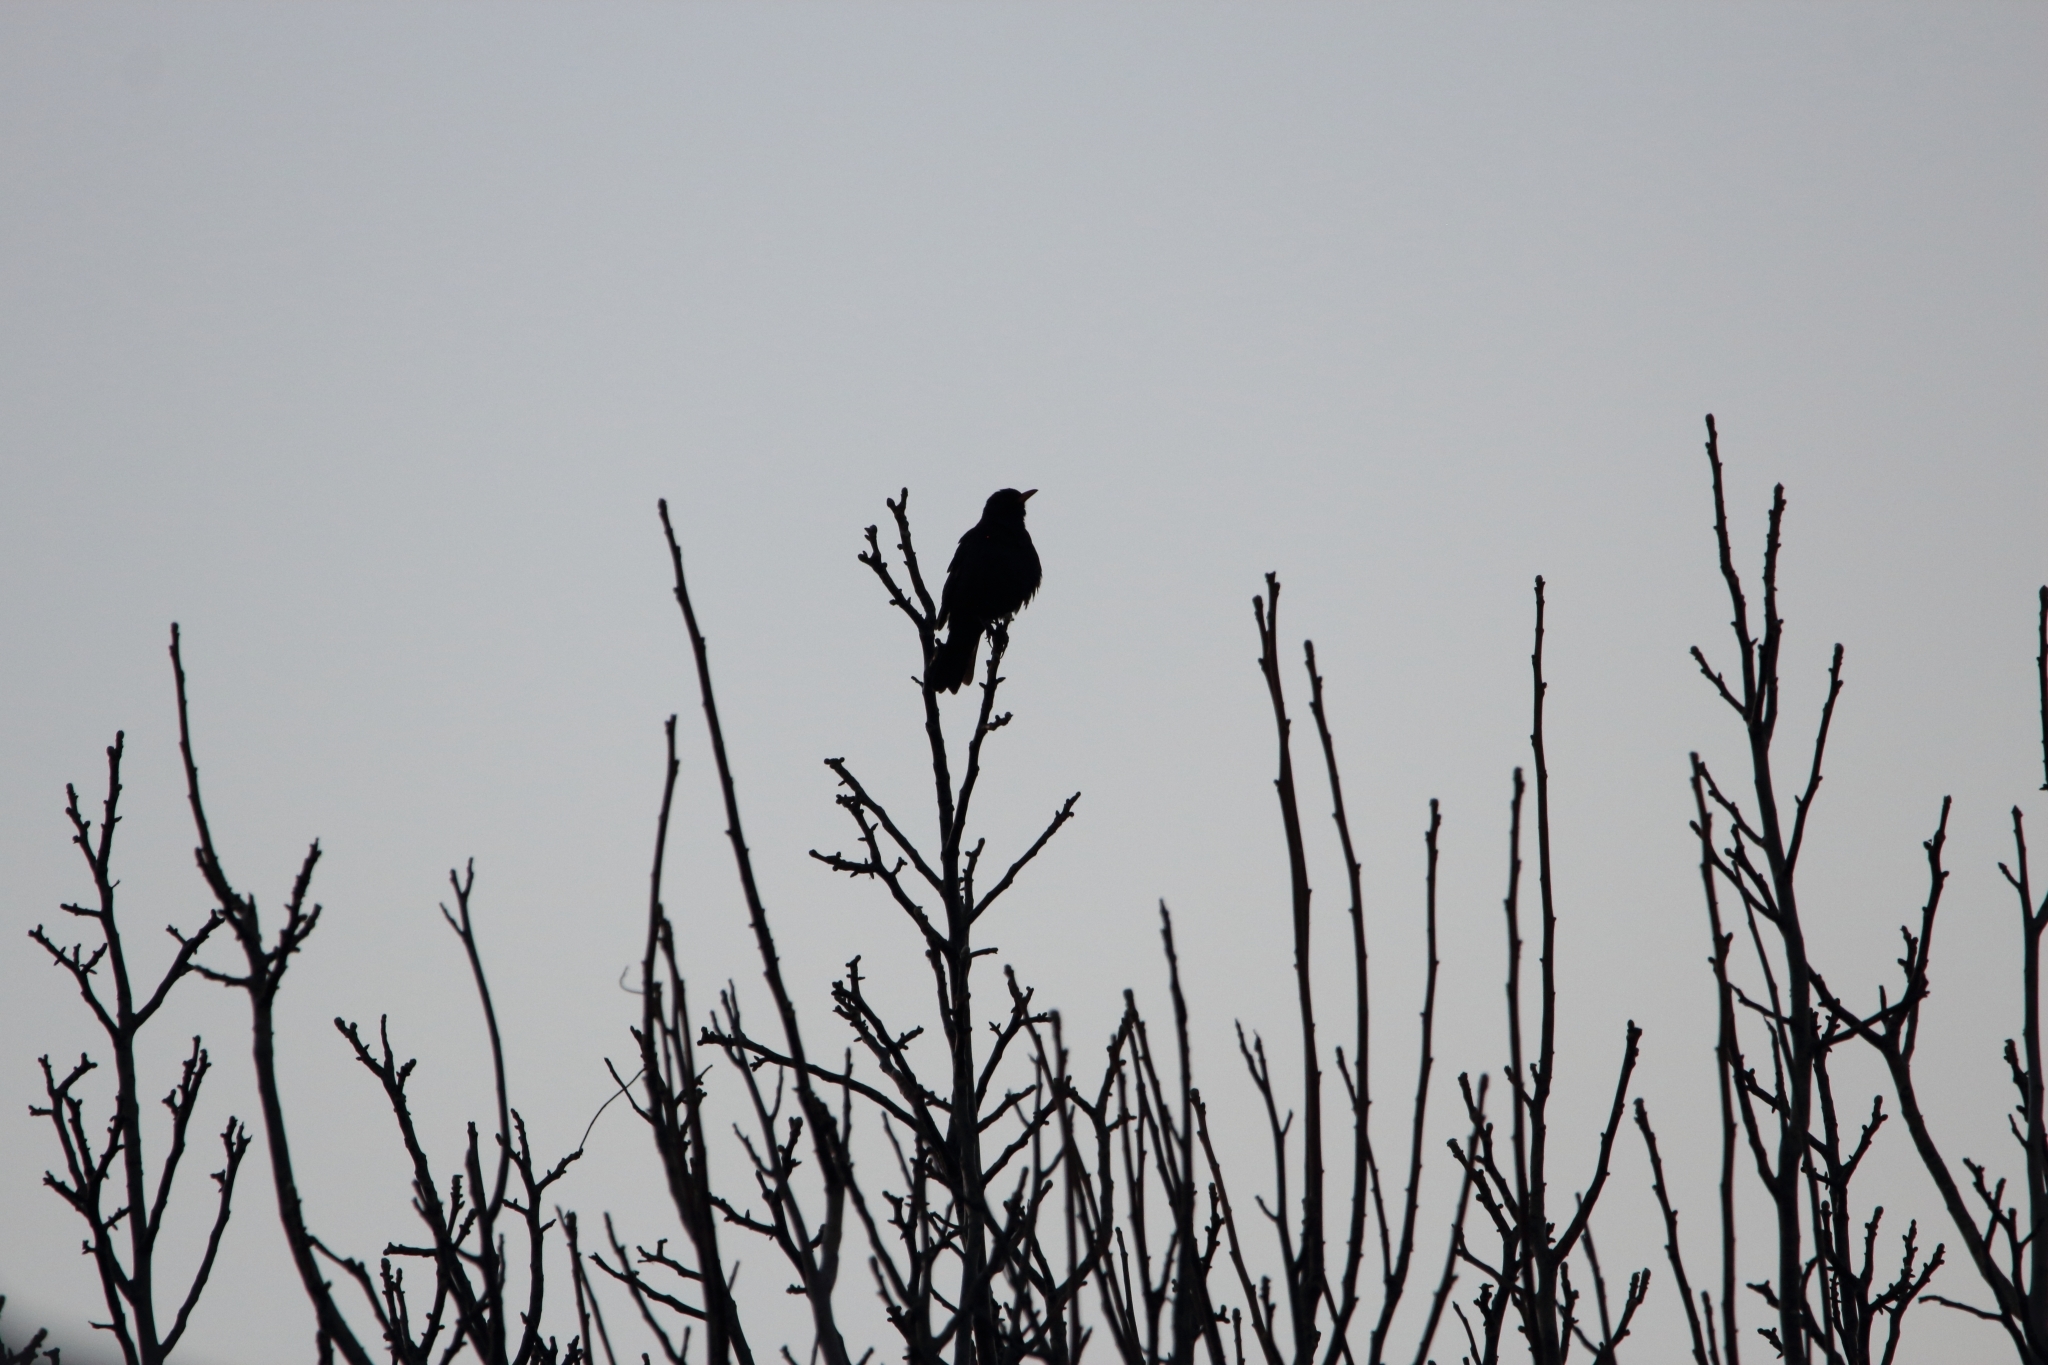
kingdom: Animalia
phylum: Chordata
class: Aves
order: Passeriformes
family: Turdidae
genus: Turdus
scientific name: Turdus merula
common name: Common blackbird
